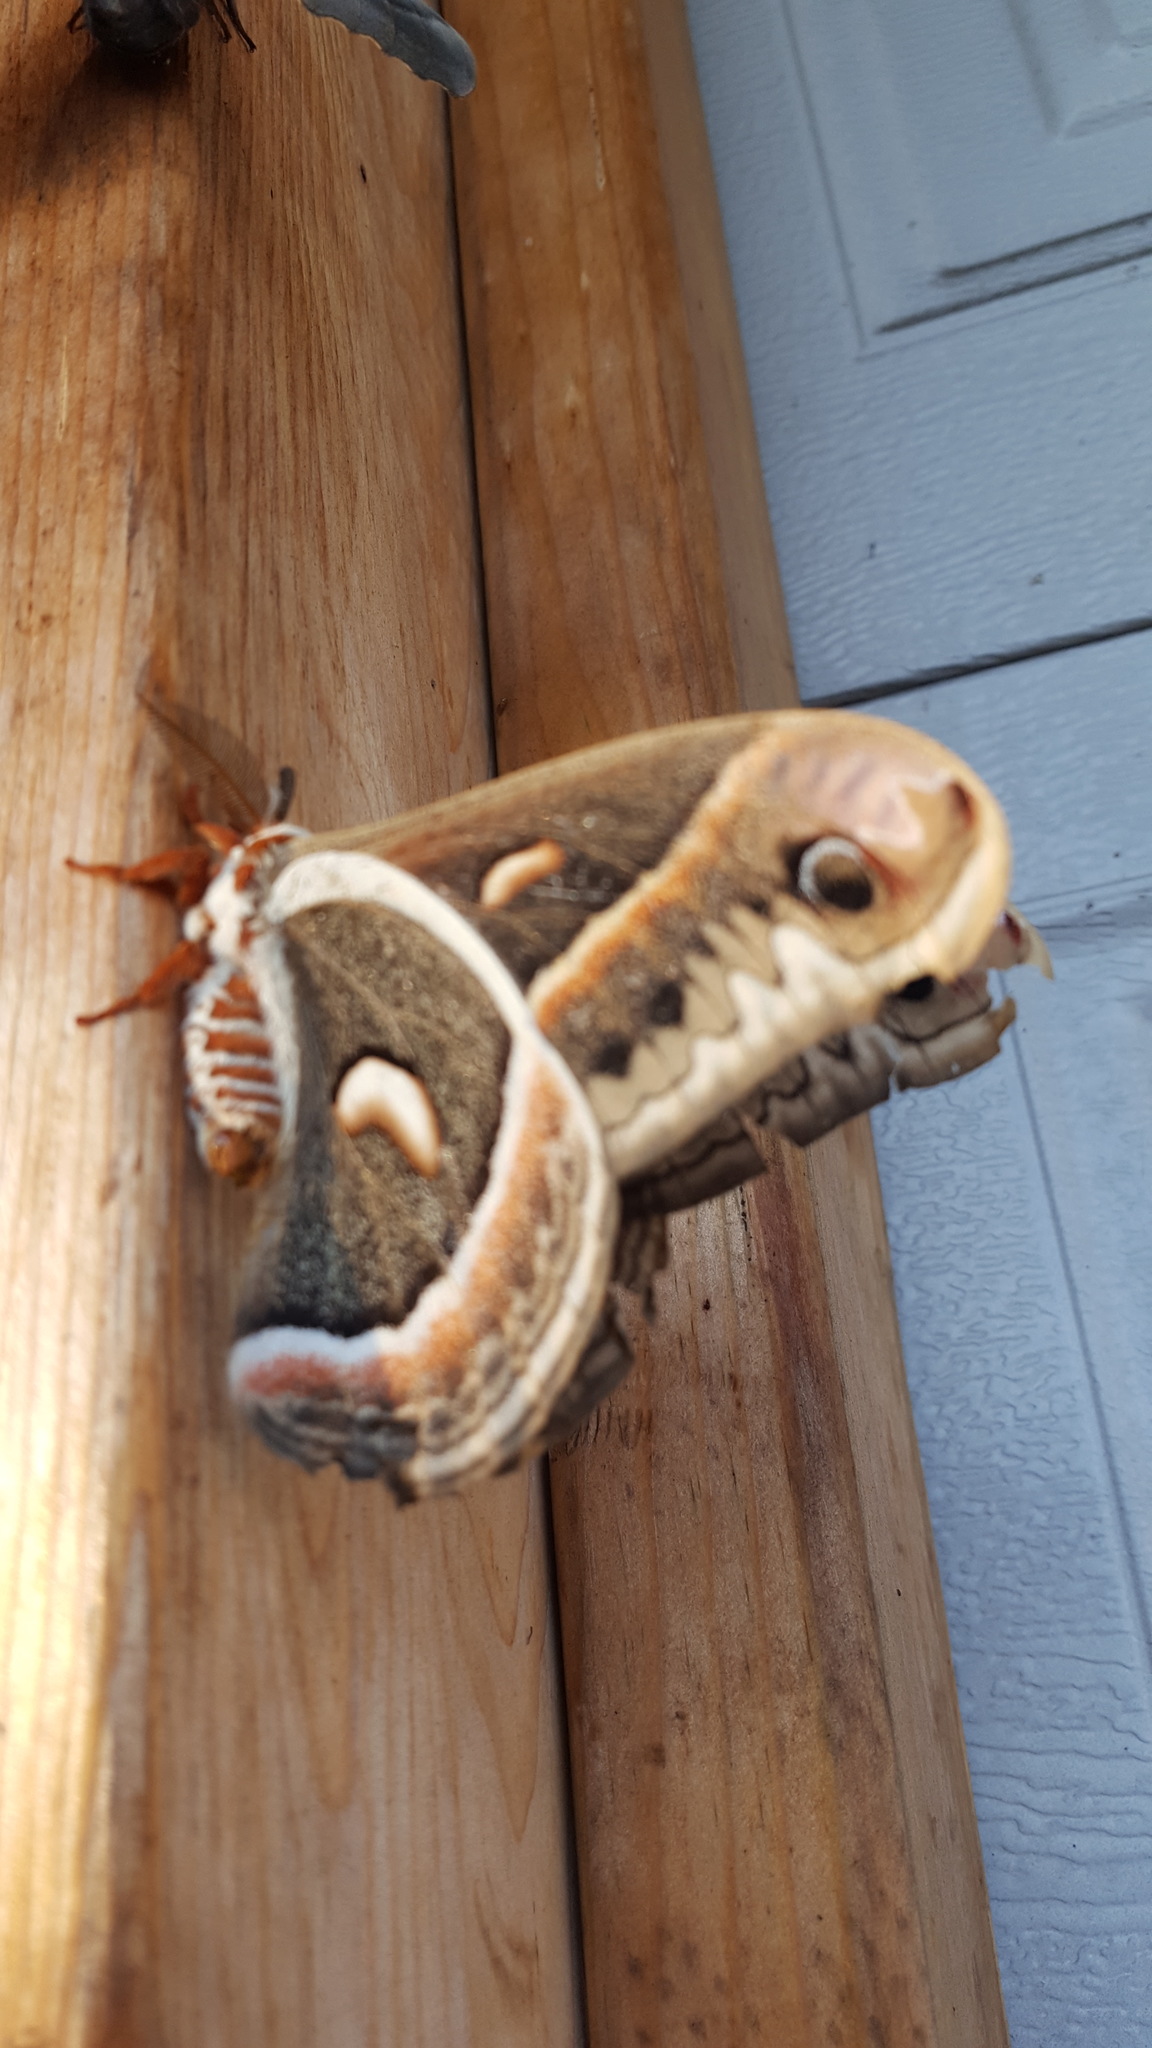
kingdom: Animalia
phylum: Arthropoda
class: Insecta
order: Lepidoptera
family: Saturniidae
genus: Hyalophora
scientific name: Hyalophora cecropia
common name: Cecropia silkmoth
